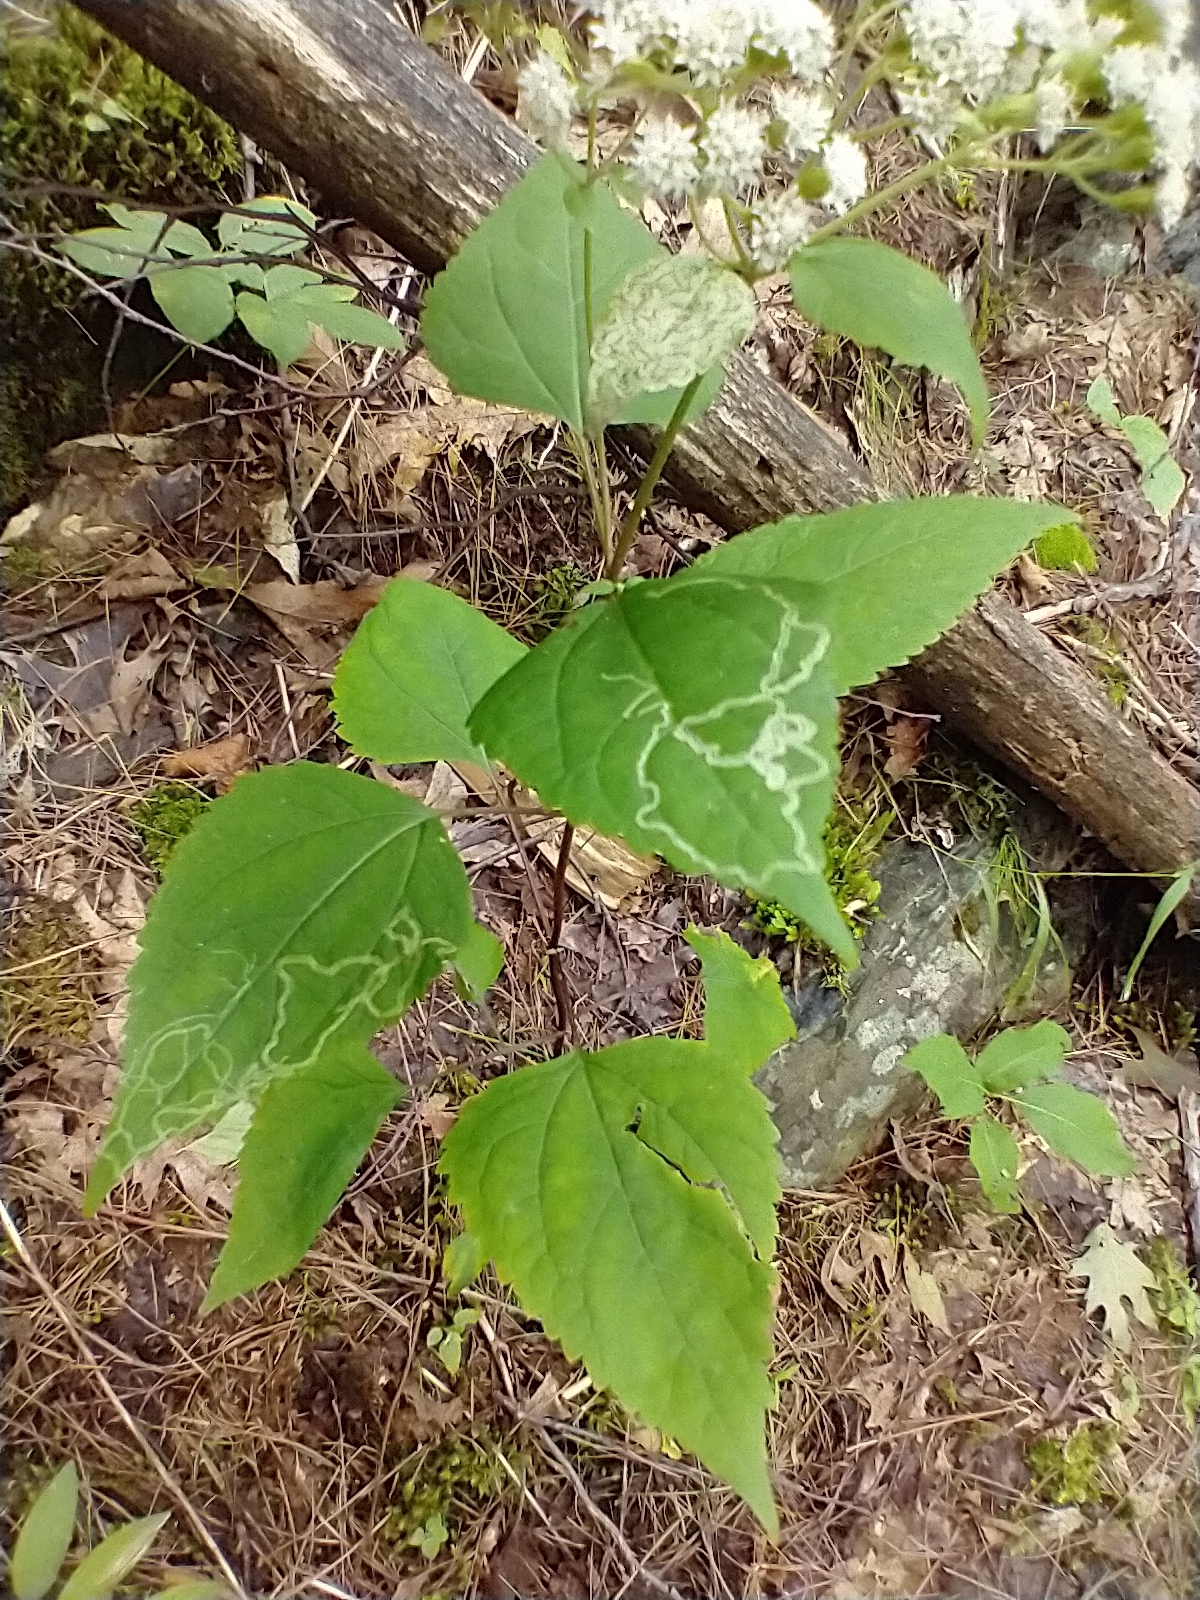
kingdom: Plantae
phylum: Tracheophyta
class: Magnoliopsida
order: Asterales
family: Asteraceae
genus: Ageratina
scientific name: Ageratina altissima
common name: White snakeroot
